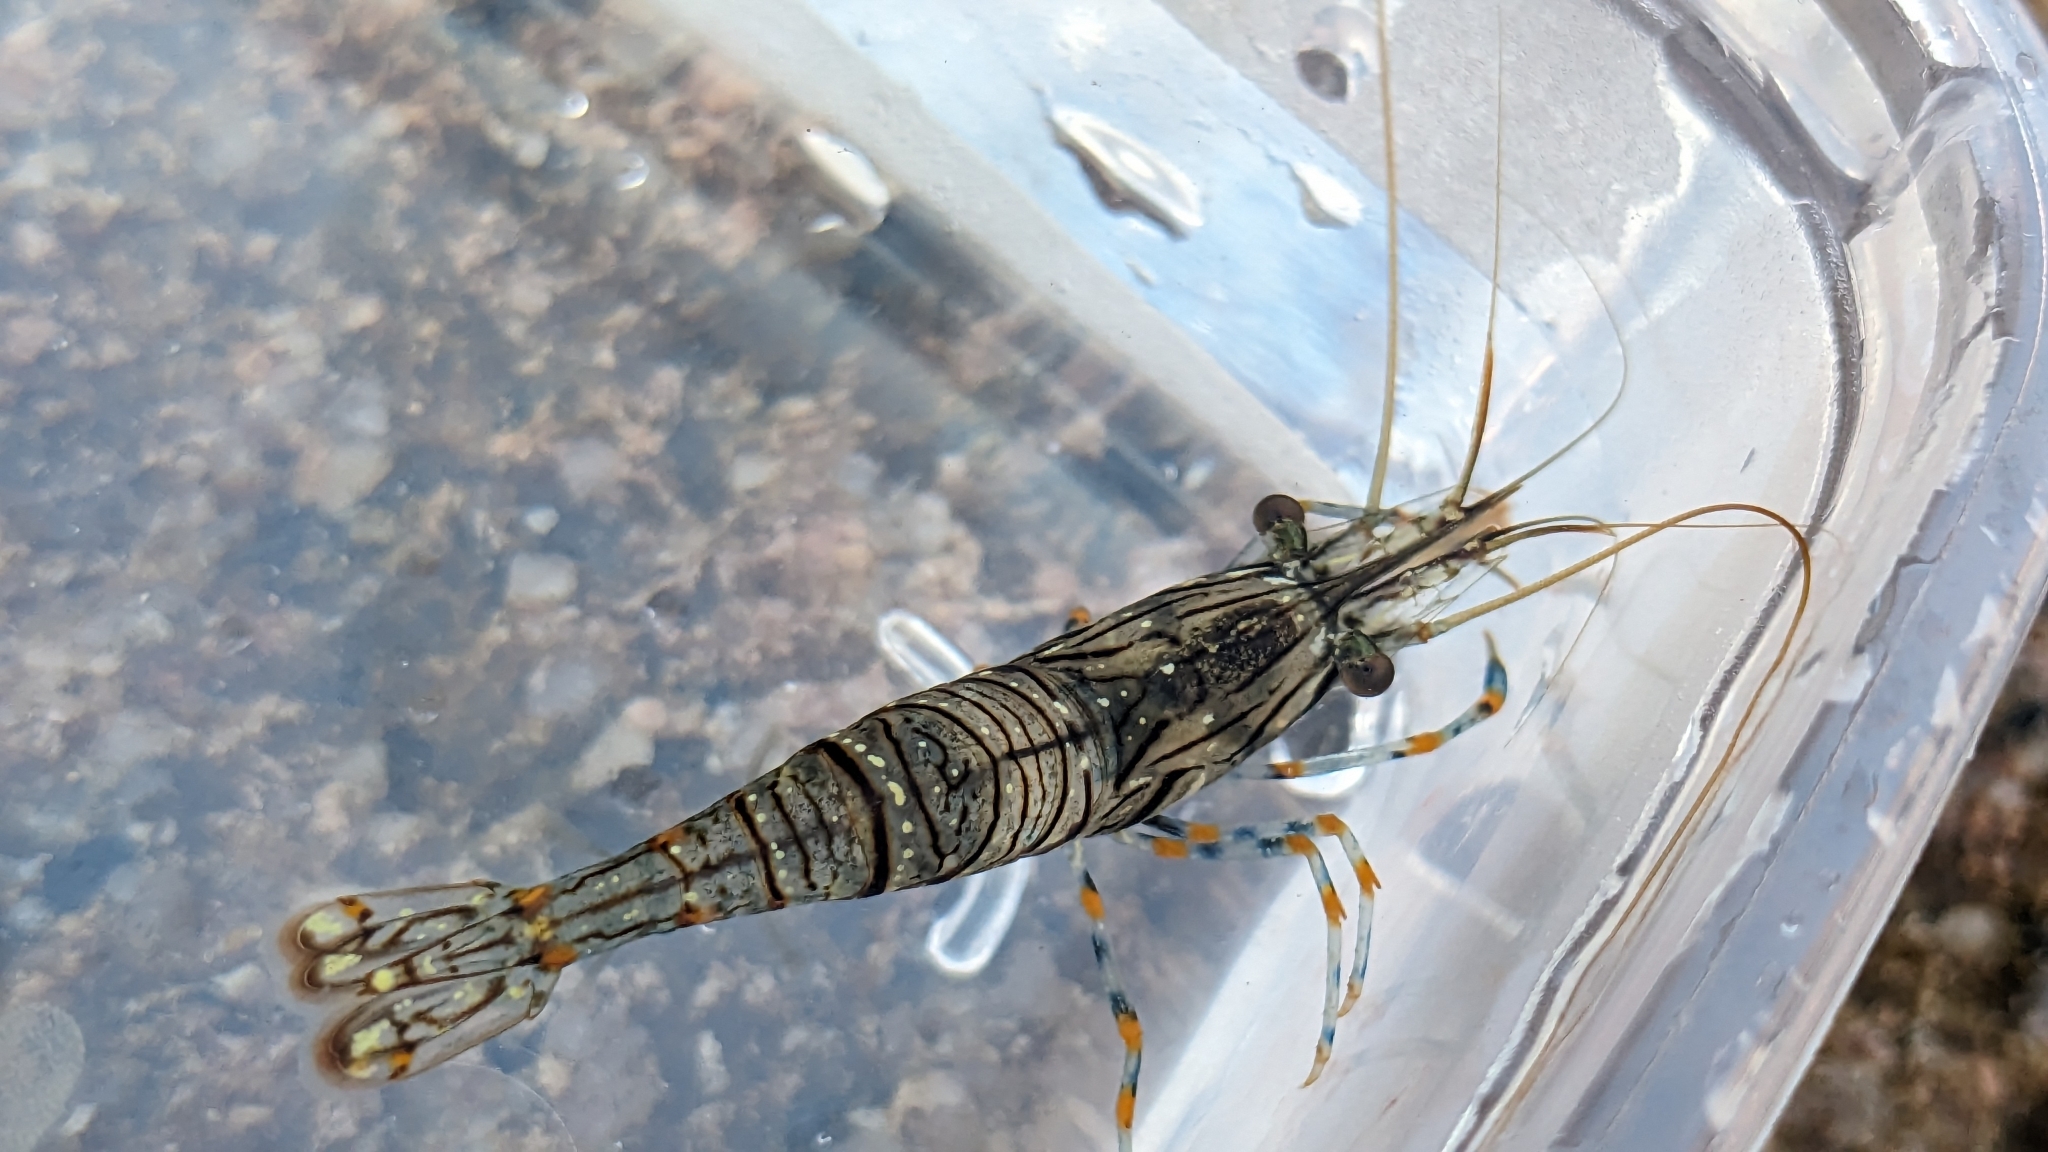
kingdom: Animalia
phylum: Arthropoda
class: Malacostraca
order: Decapoda
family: Palaemonidae
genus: Palaemon
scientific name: Palaemon elegans
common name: Grass prawm
